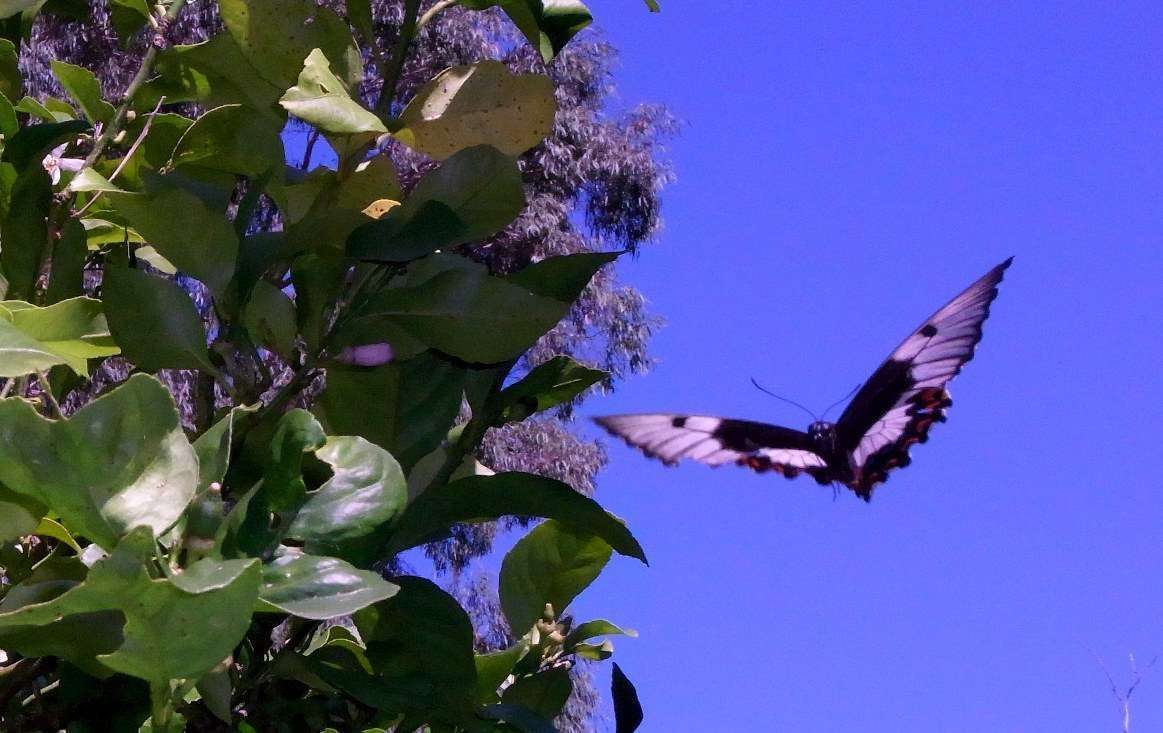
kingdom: Animalia
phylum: Arthropoda
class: Insecta
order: Lepidoptera
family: Papilionidae
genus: Papilio
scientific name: Papilio aegeus
